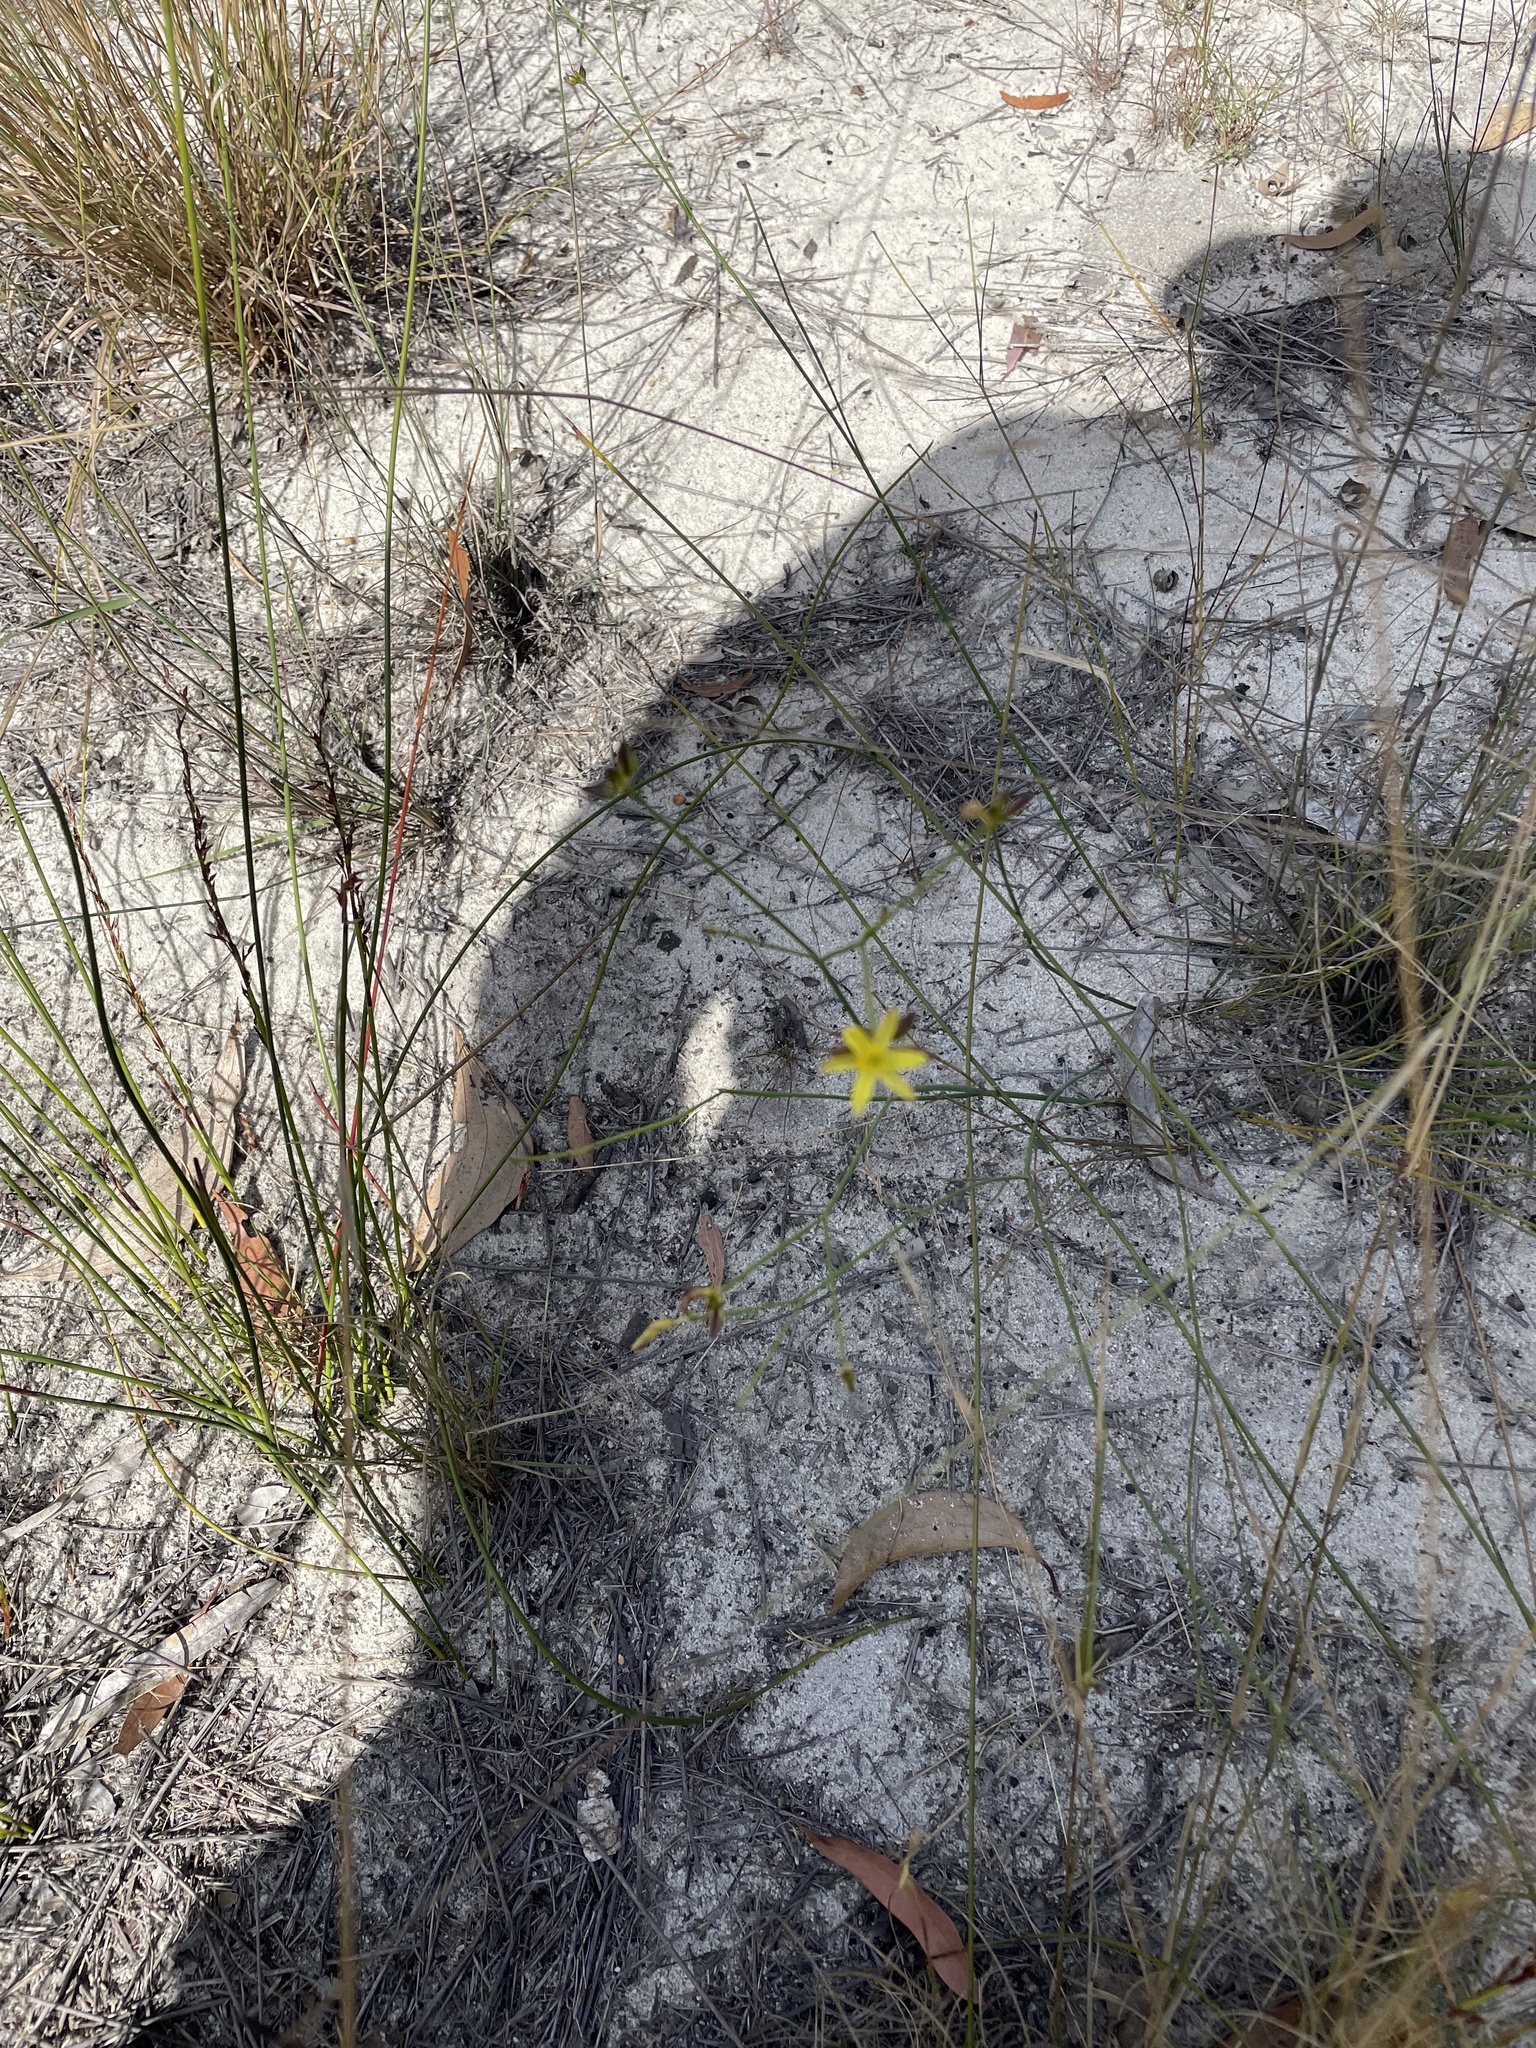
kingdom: Plantae
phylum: Tracheophyta
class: Liliopsida
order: Asparagales
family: Asphodelaceae
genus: Tricoryne
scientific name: Tricoryne muricata
